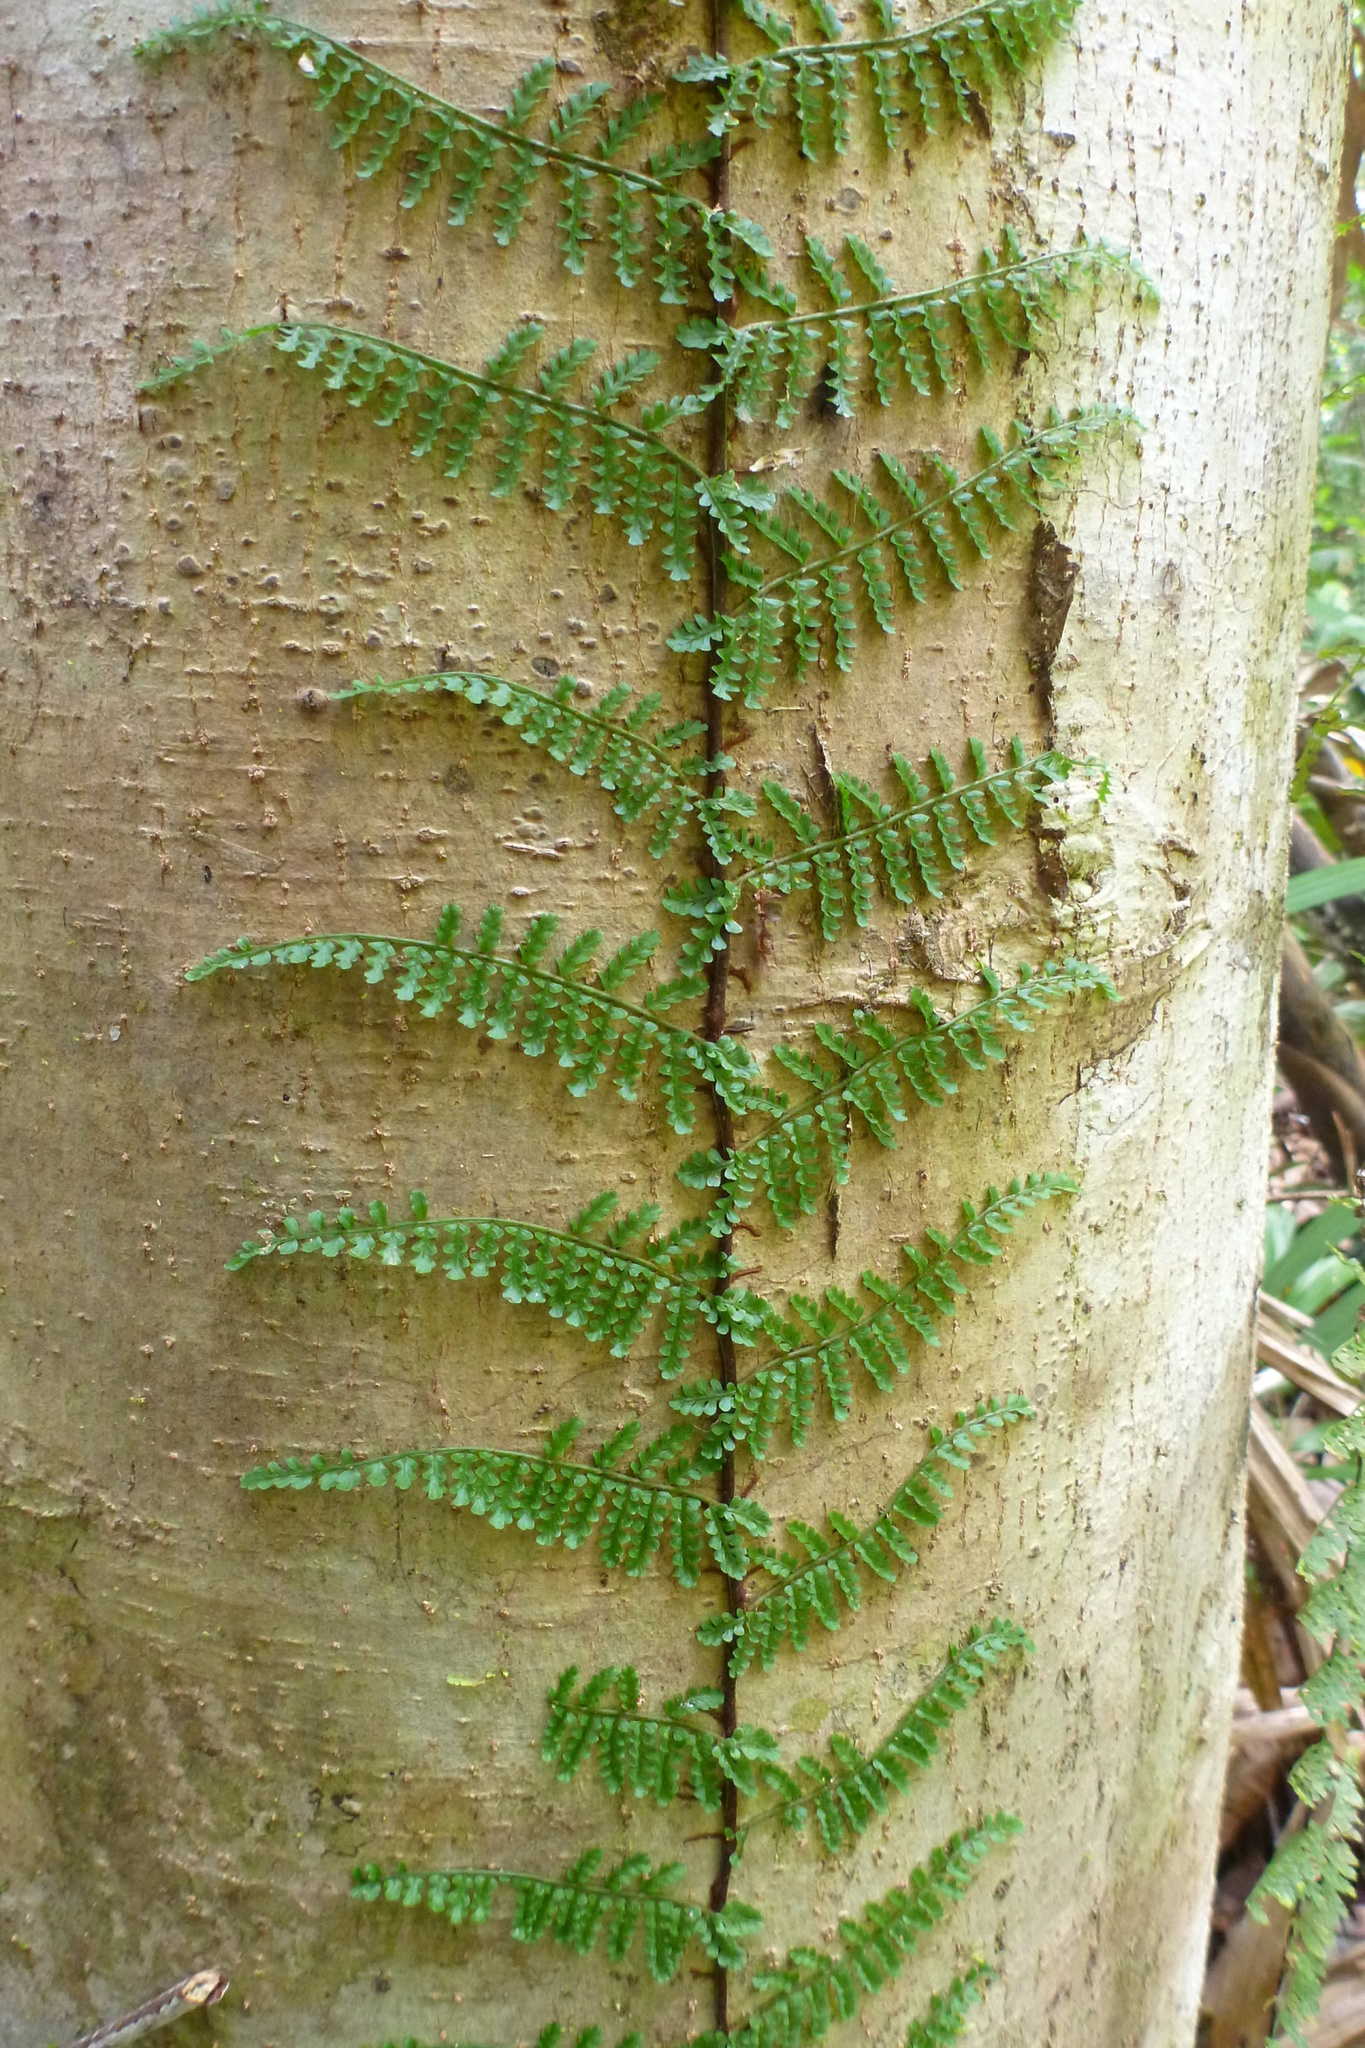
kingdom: Plantae
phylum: Tracheophyta
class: Polypodiopsida
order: Polypodiales
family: Dryopteridaceae
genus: Arthrobotrya
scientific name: Arthrobotrya articulata
